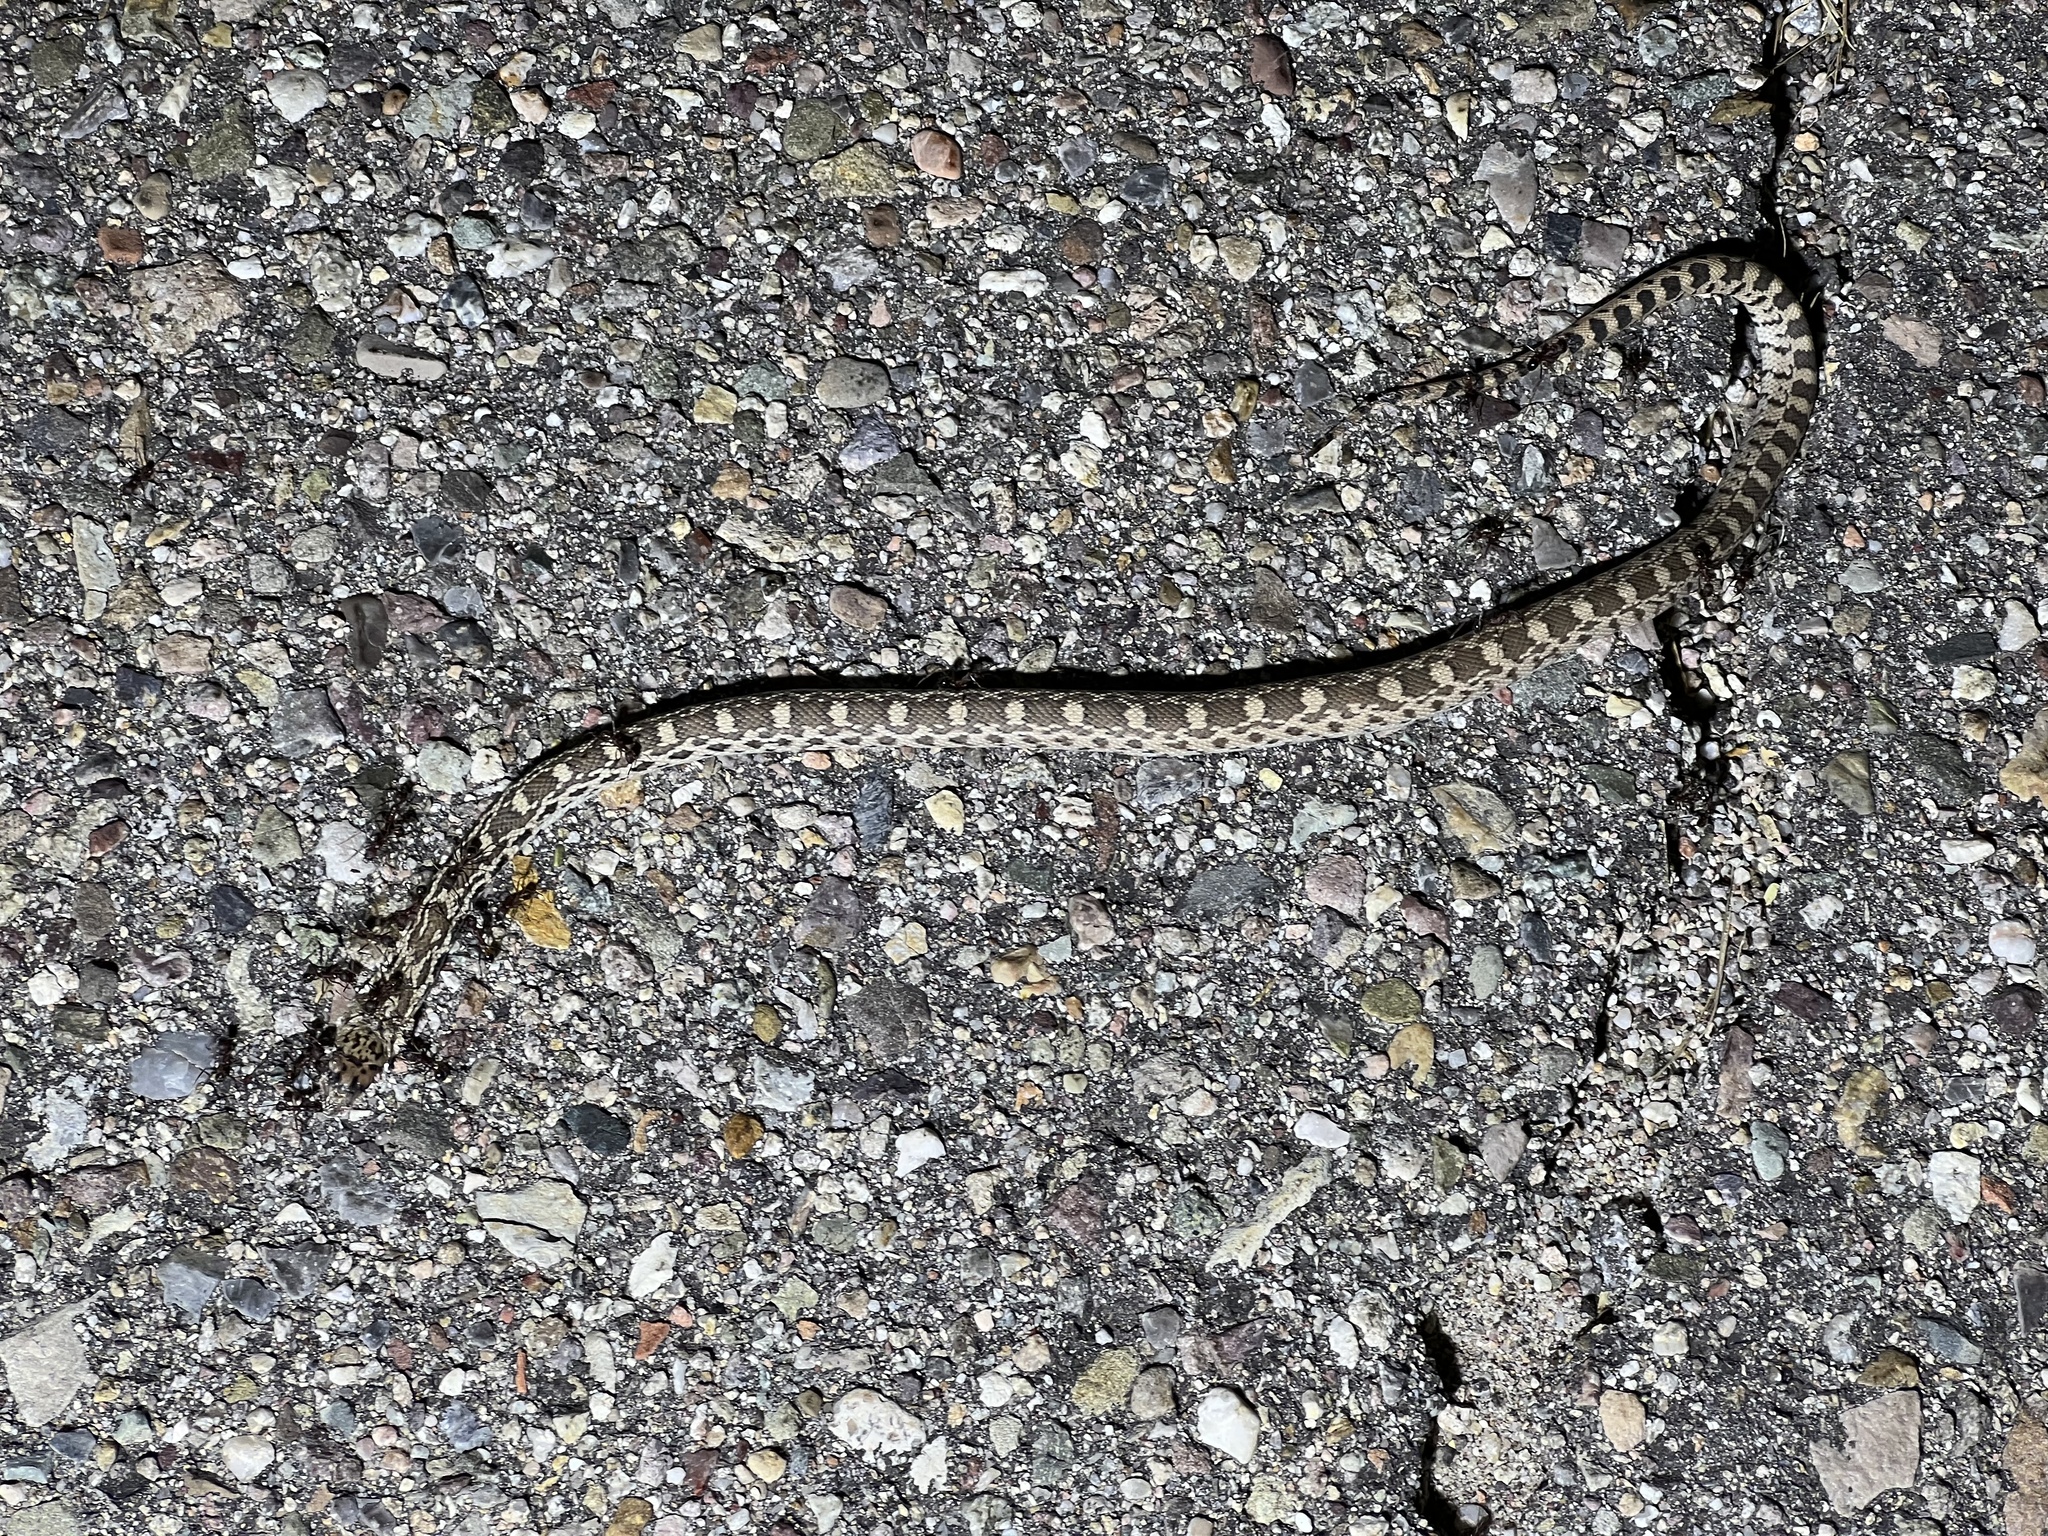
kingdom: Animalia
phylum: Chordata
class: Squamata
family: Colubridae
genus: Pituophis
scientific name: Pituophis catenifer
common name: Gopher snake
